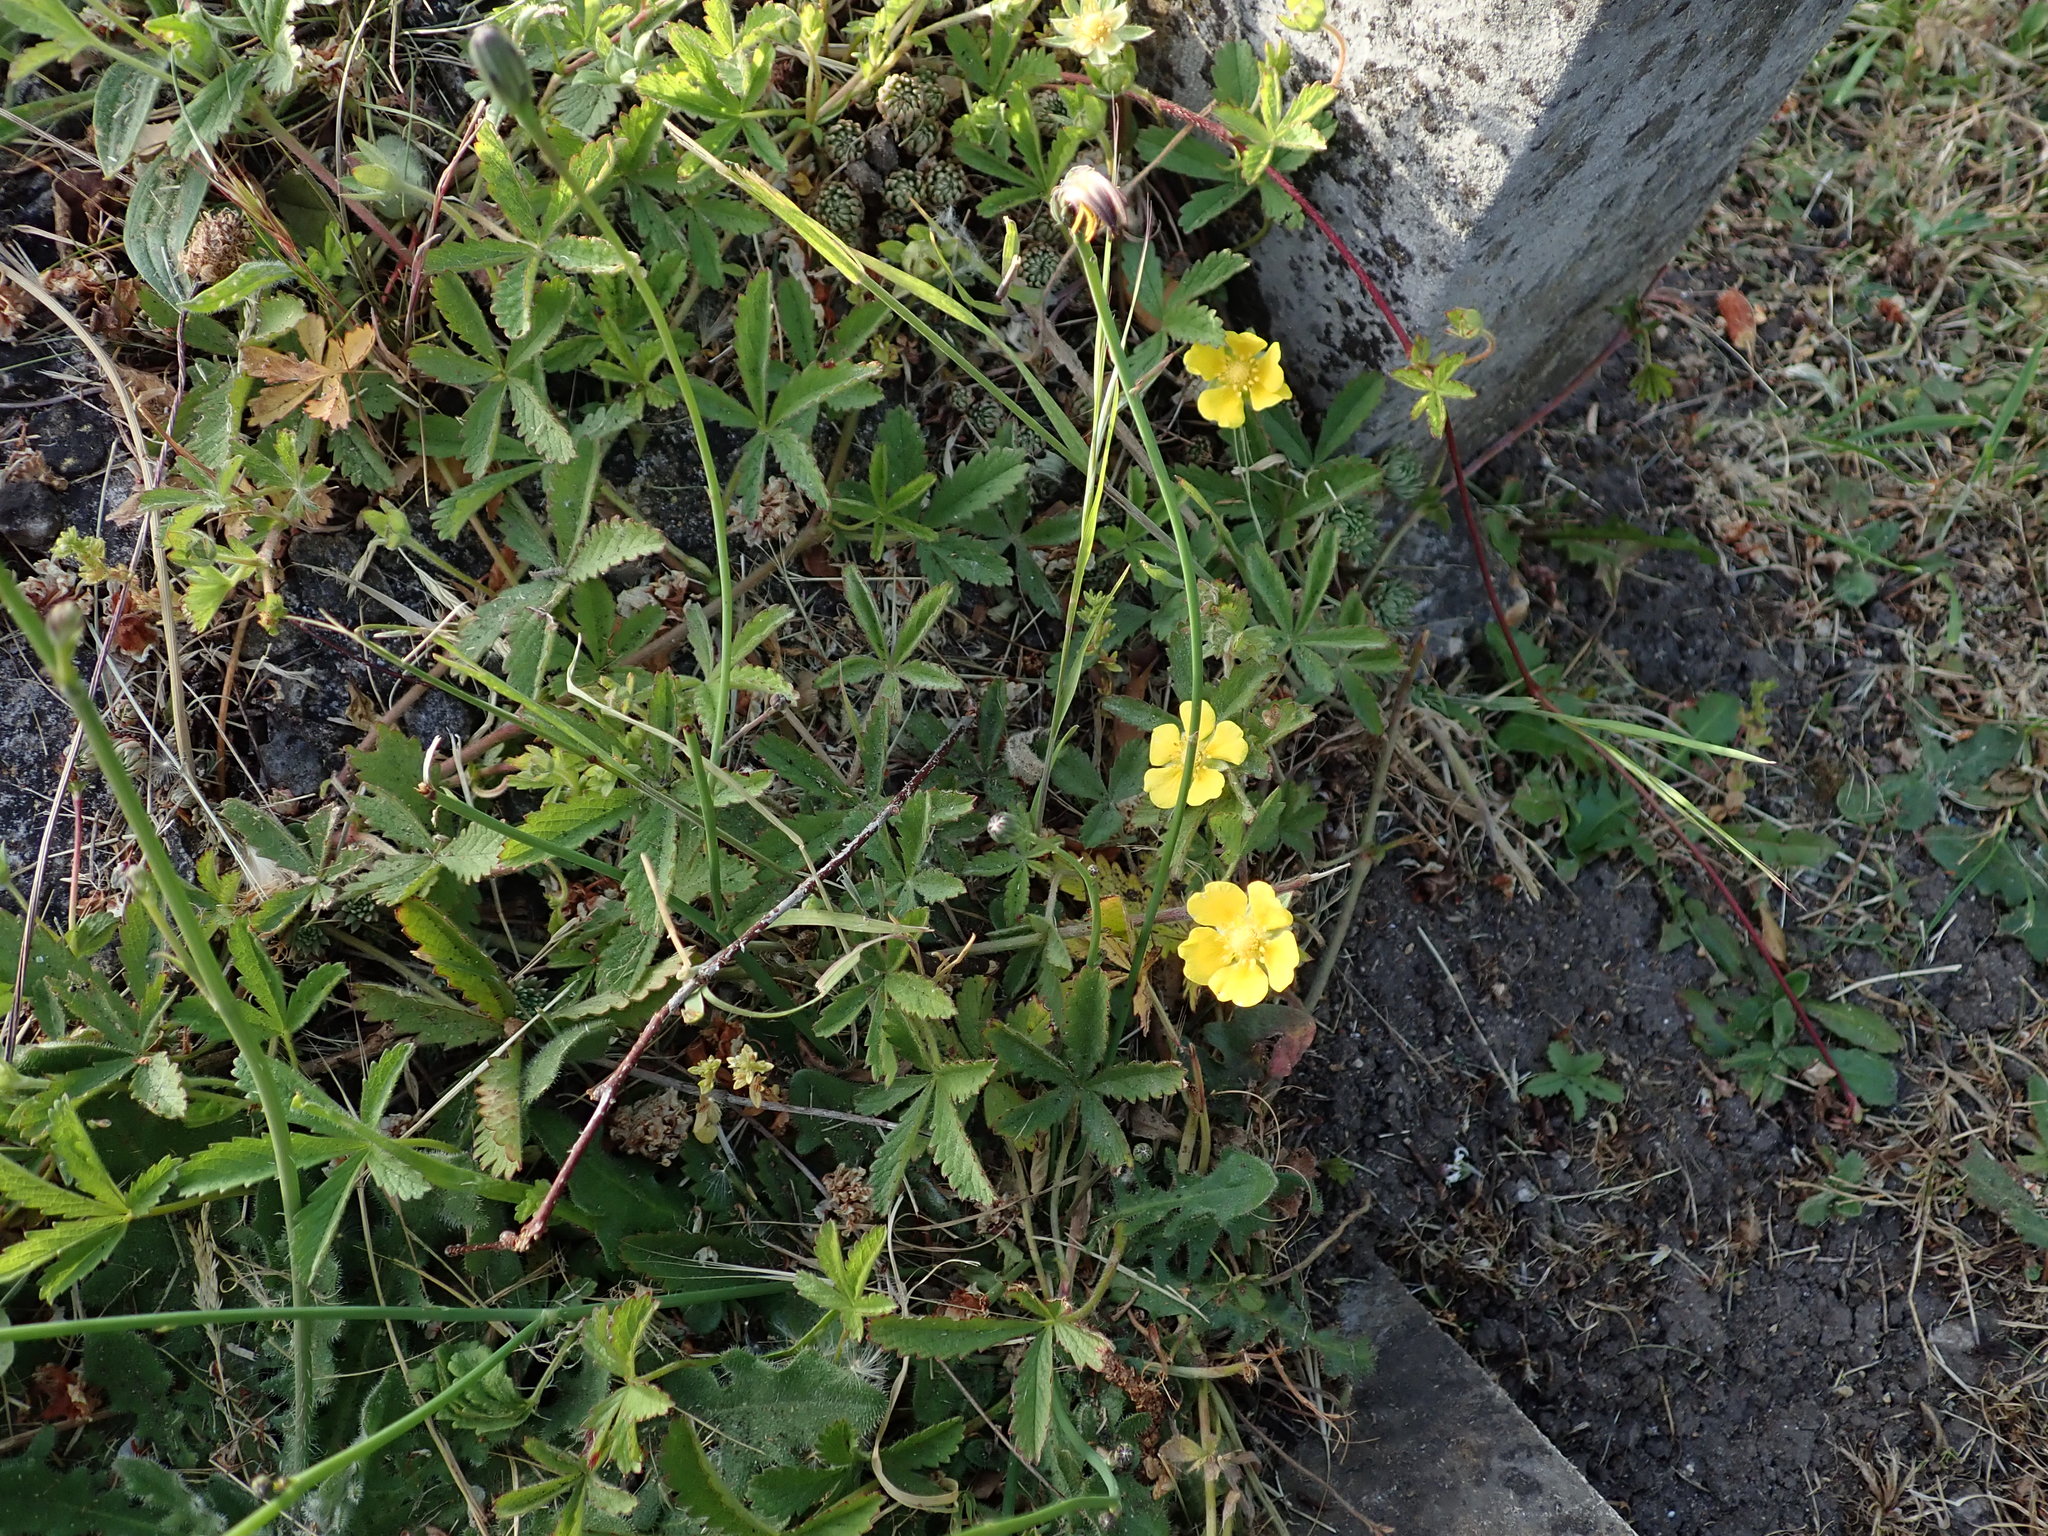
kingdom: Plantae
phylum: Tracheophyta
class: Magnoliopsida
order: Rosales
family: Rosaceae
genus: Potentilla
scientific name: Potentilla reptans
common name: Creeping cinquefoil
